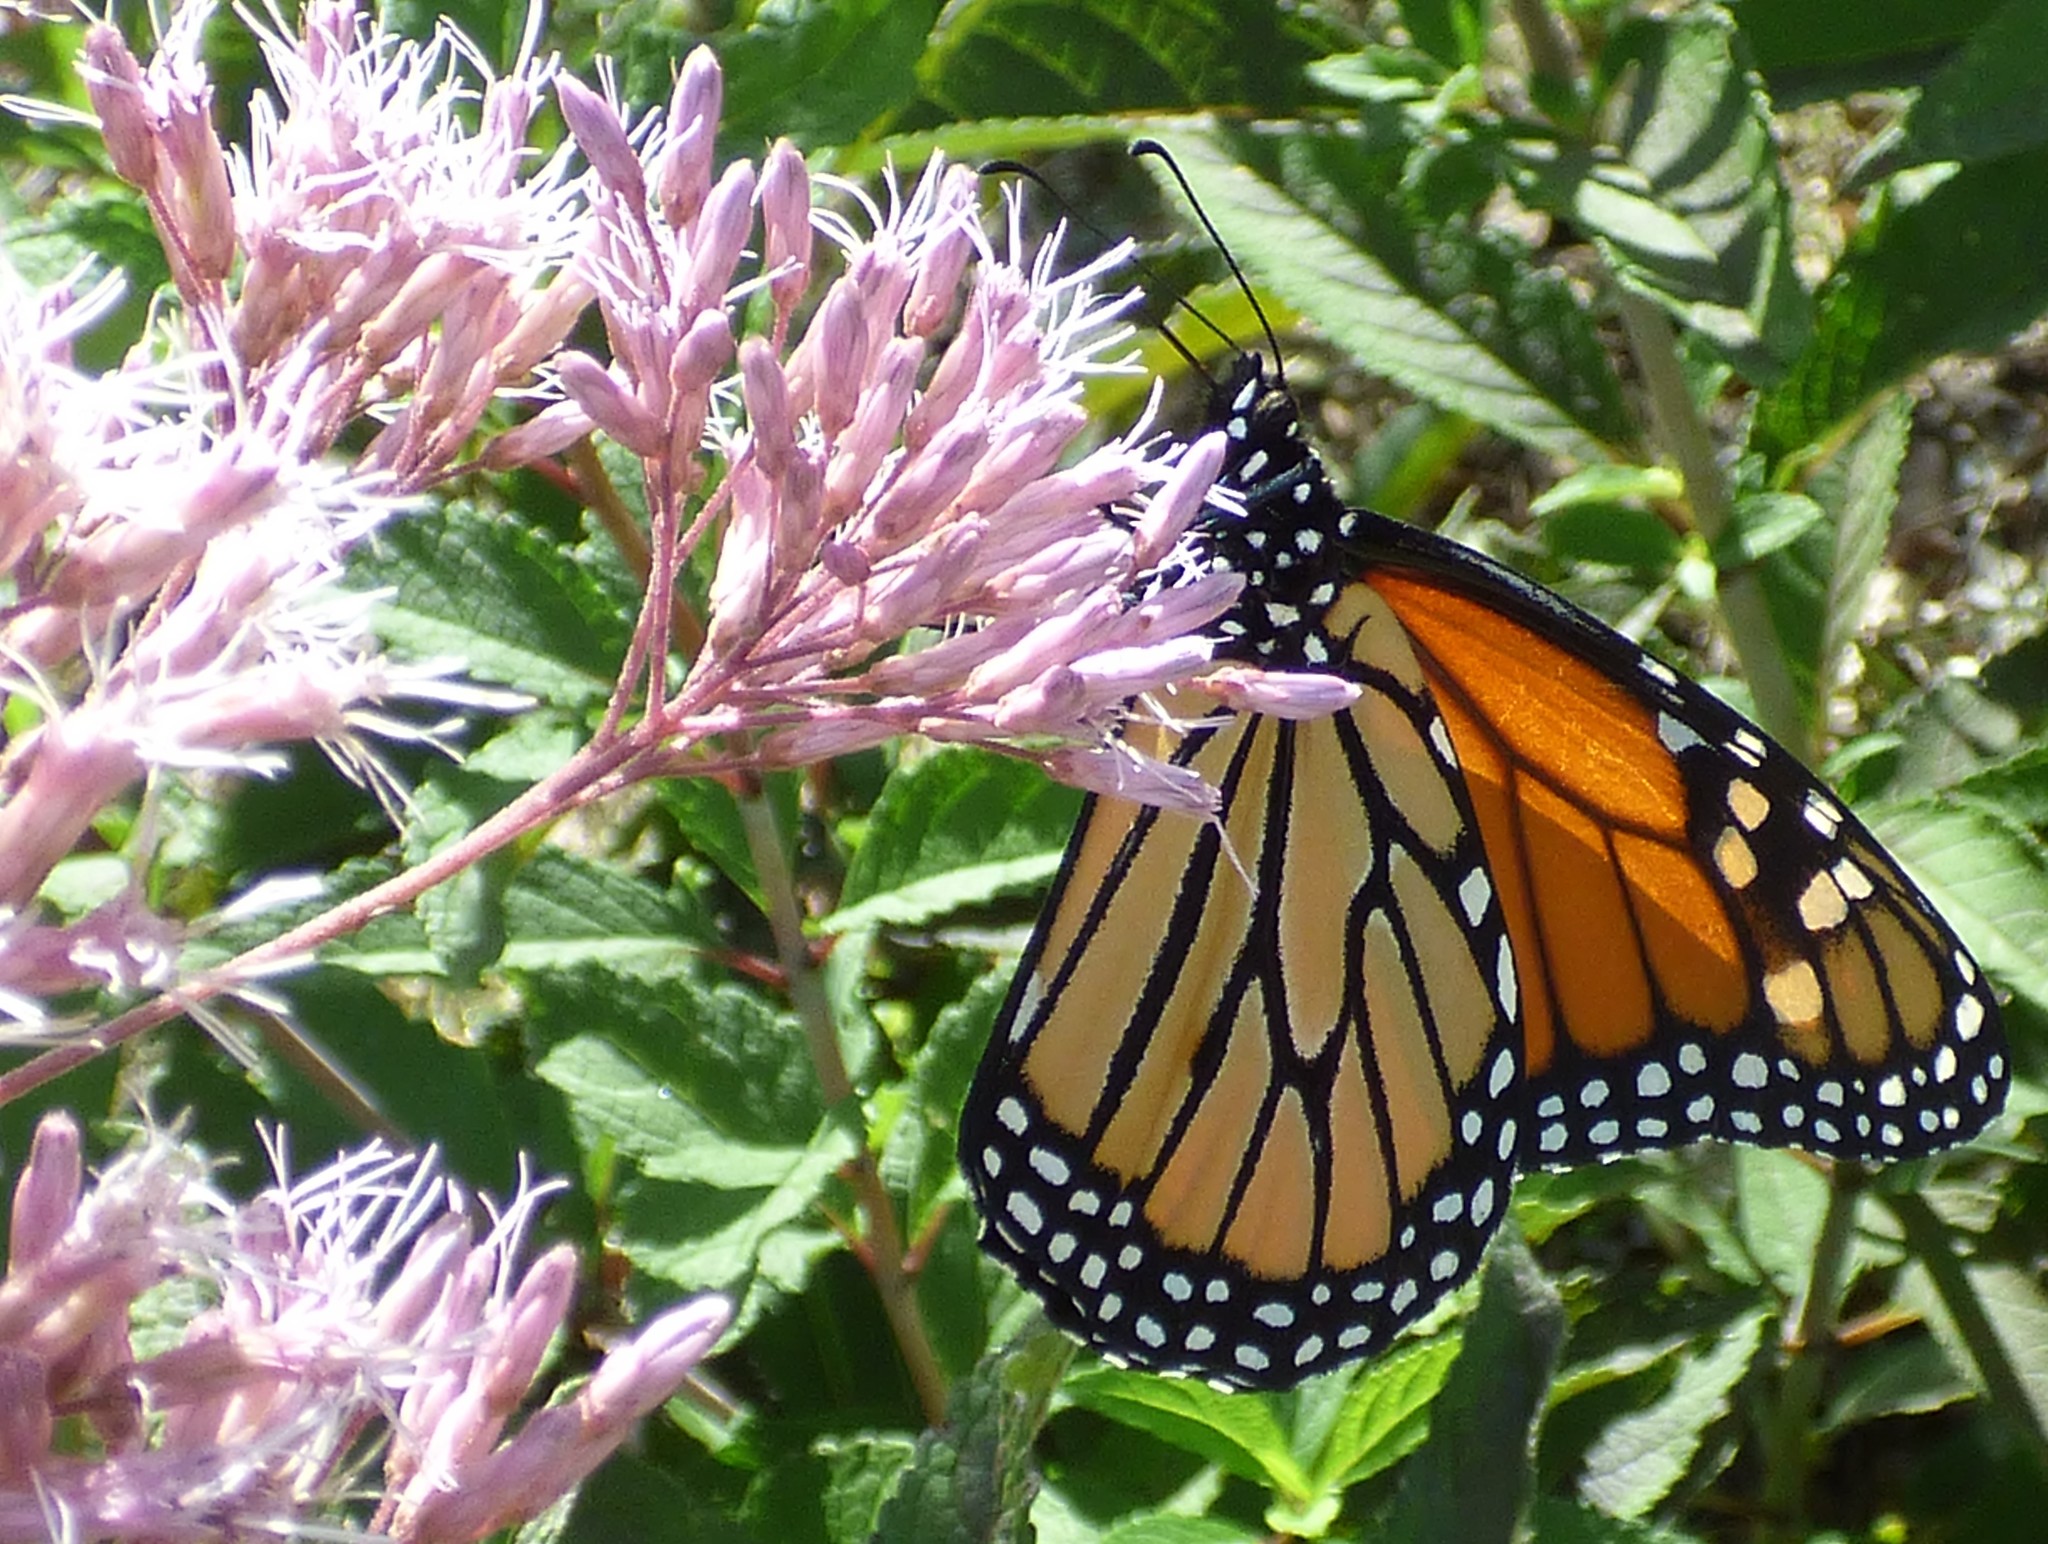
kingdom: Animalia
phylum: Arthropoda
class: Insecta
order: Lepidoptera
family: Nymphalidae
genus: Danaus
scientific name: Danaus plexippus
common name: Monarch
